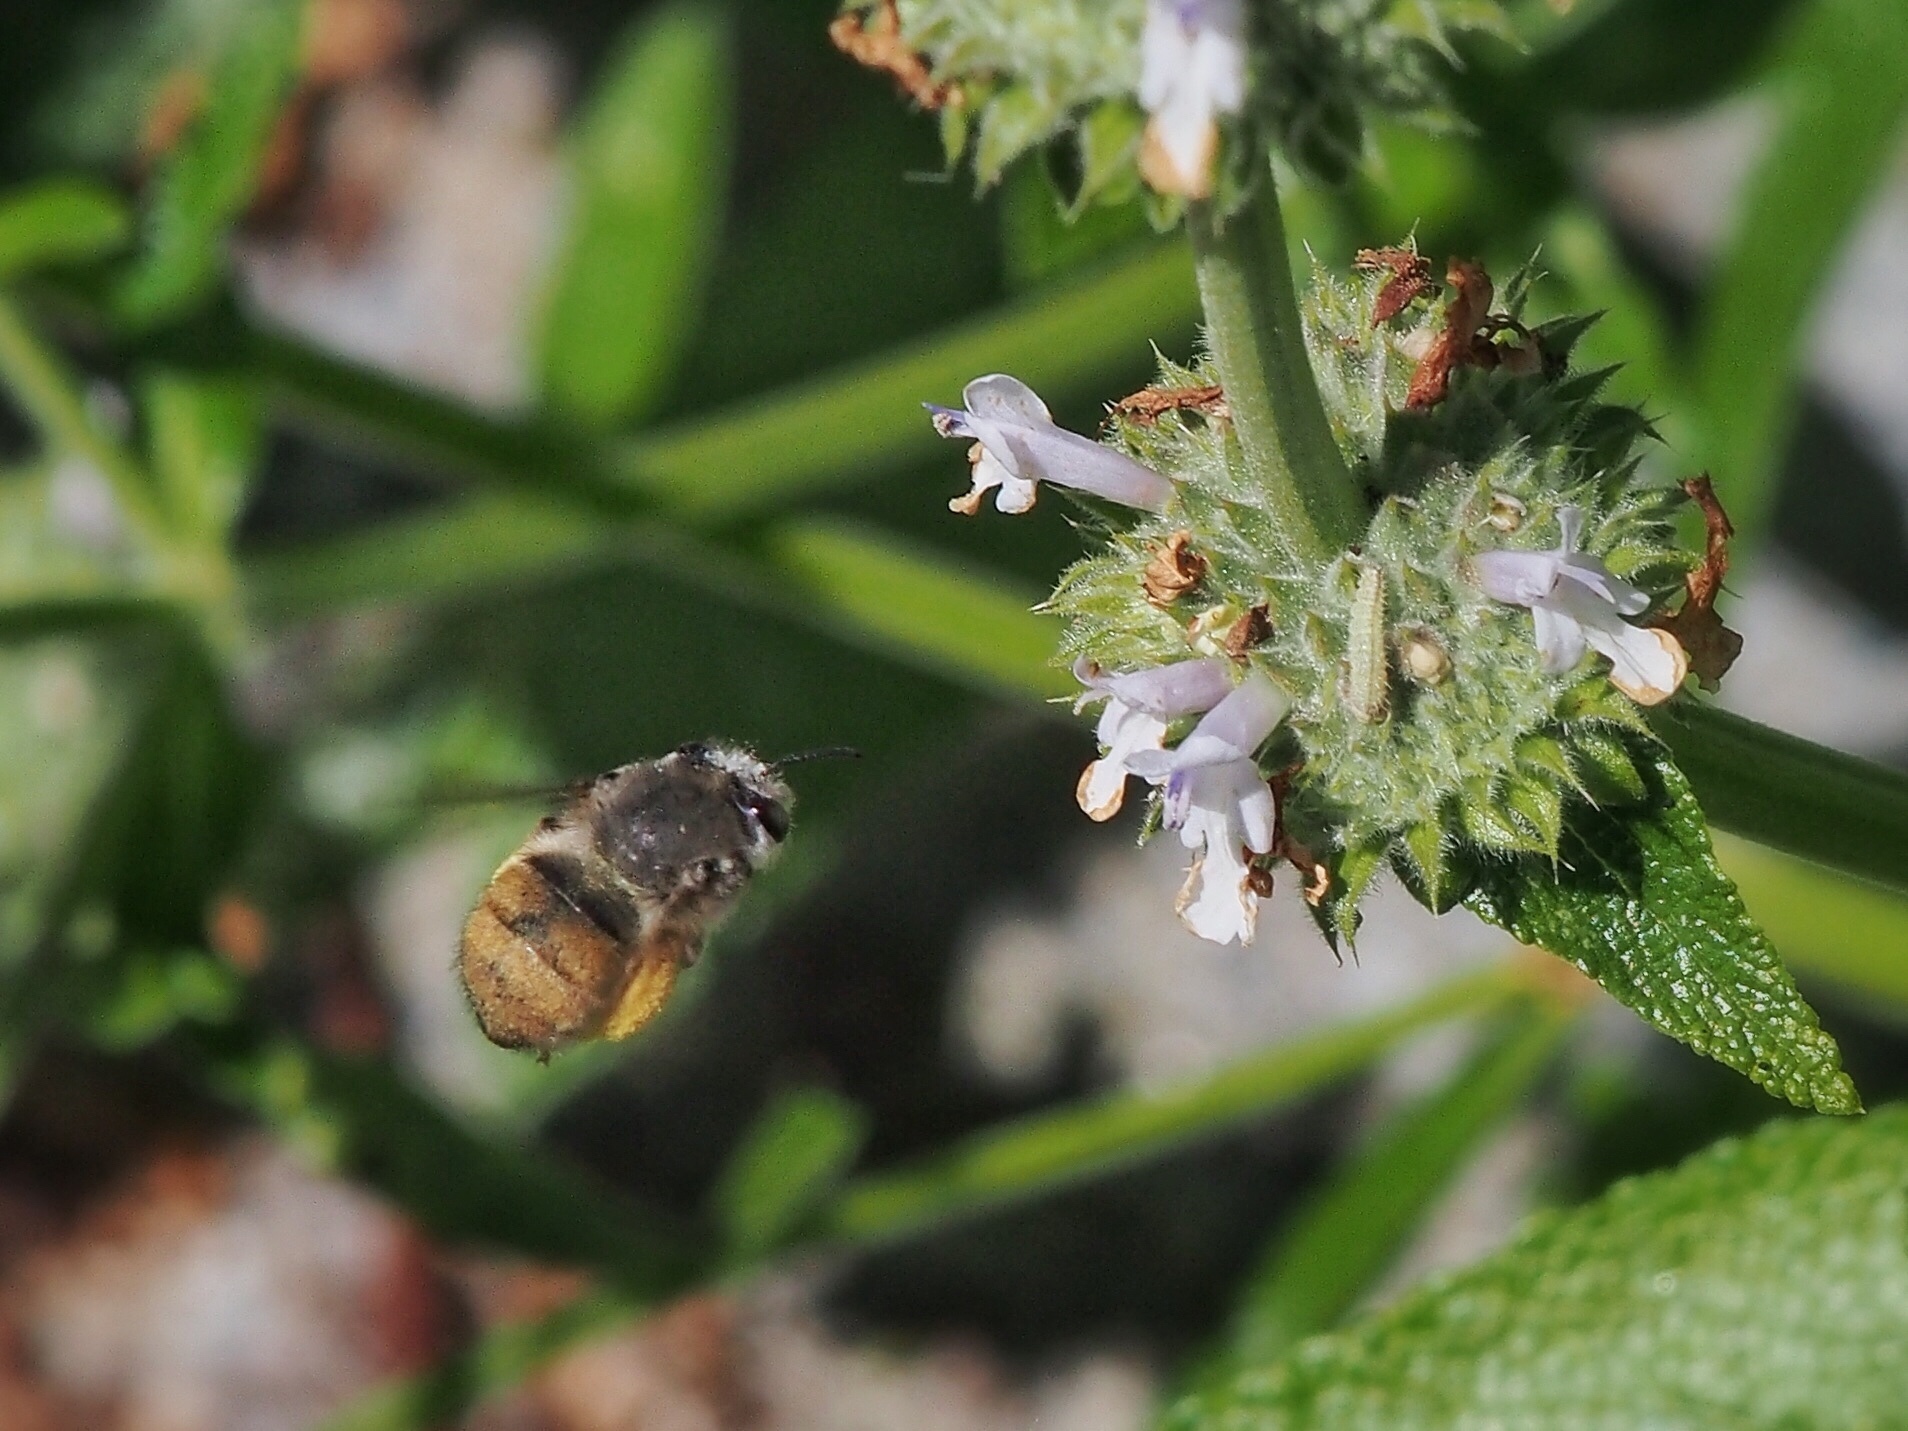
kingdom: Animalia
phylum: Arthropoda
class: Insecta
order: Hymenoptera
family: Apidae
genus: Habropoda
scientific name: Habropoda depressa
